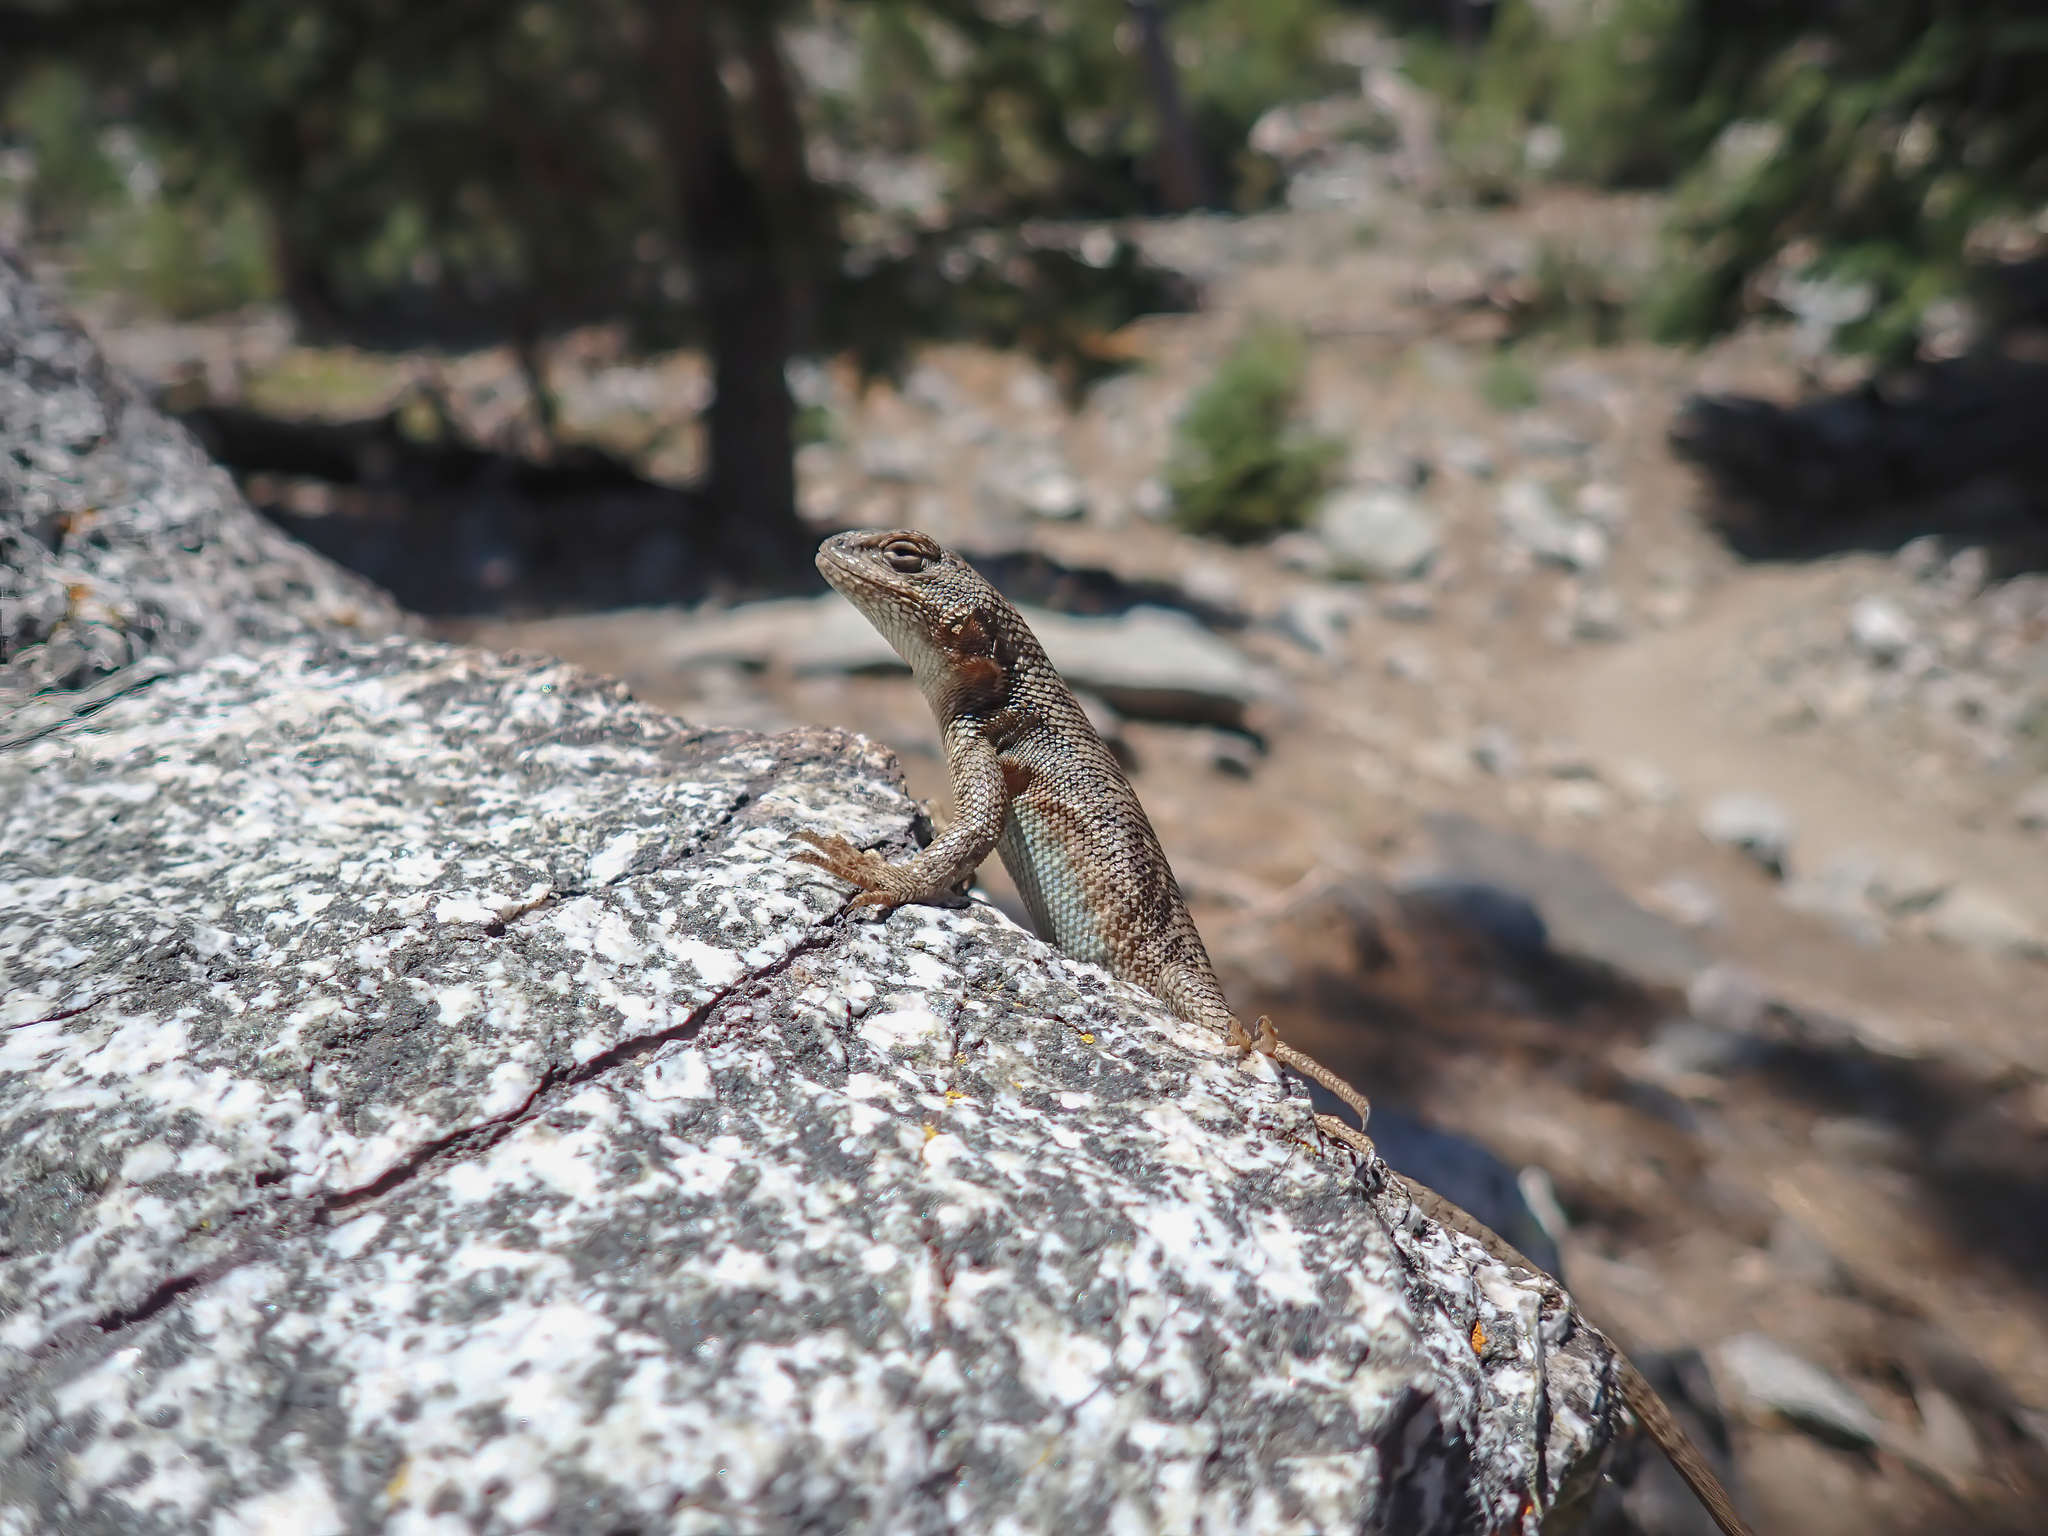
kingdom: Animalia
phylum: Chordata
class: Squamata
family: Phrynosomatidae
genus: Sceloporus
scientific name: Sceloporus graciosus
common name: Sagebrush lizard
